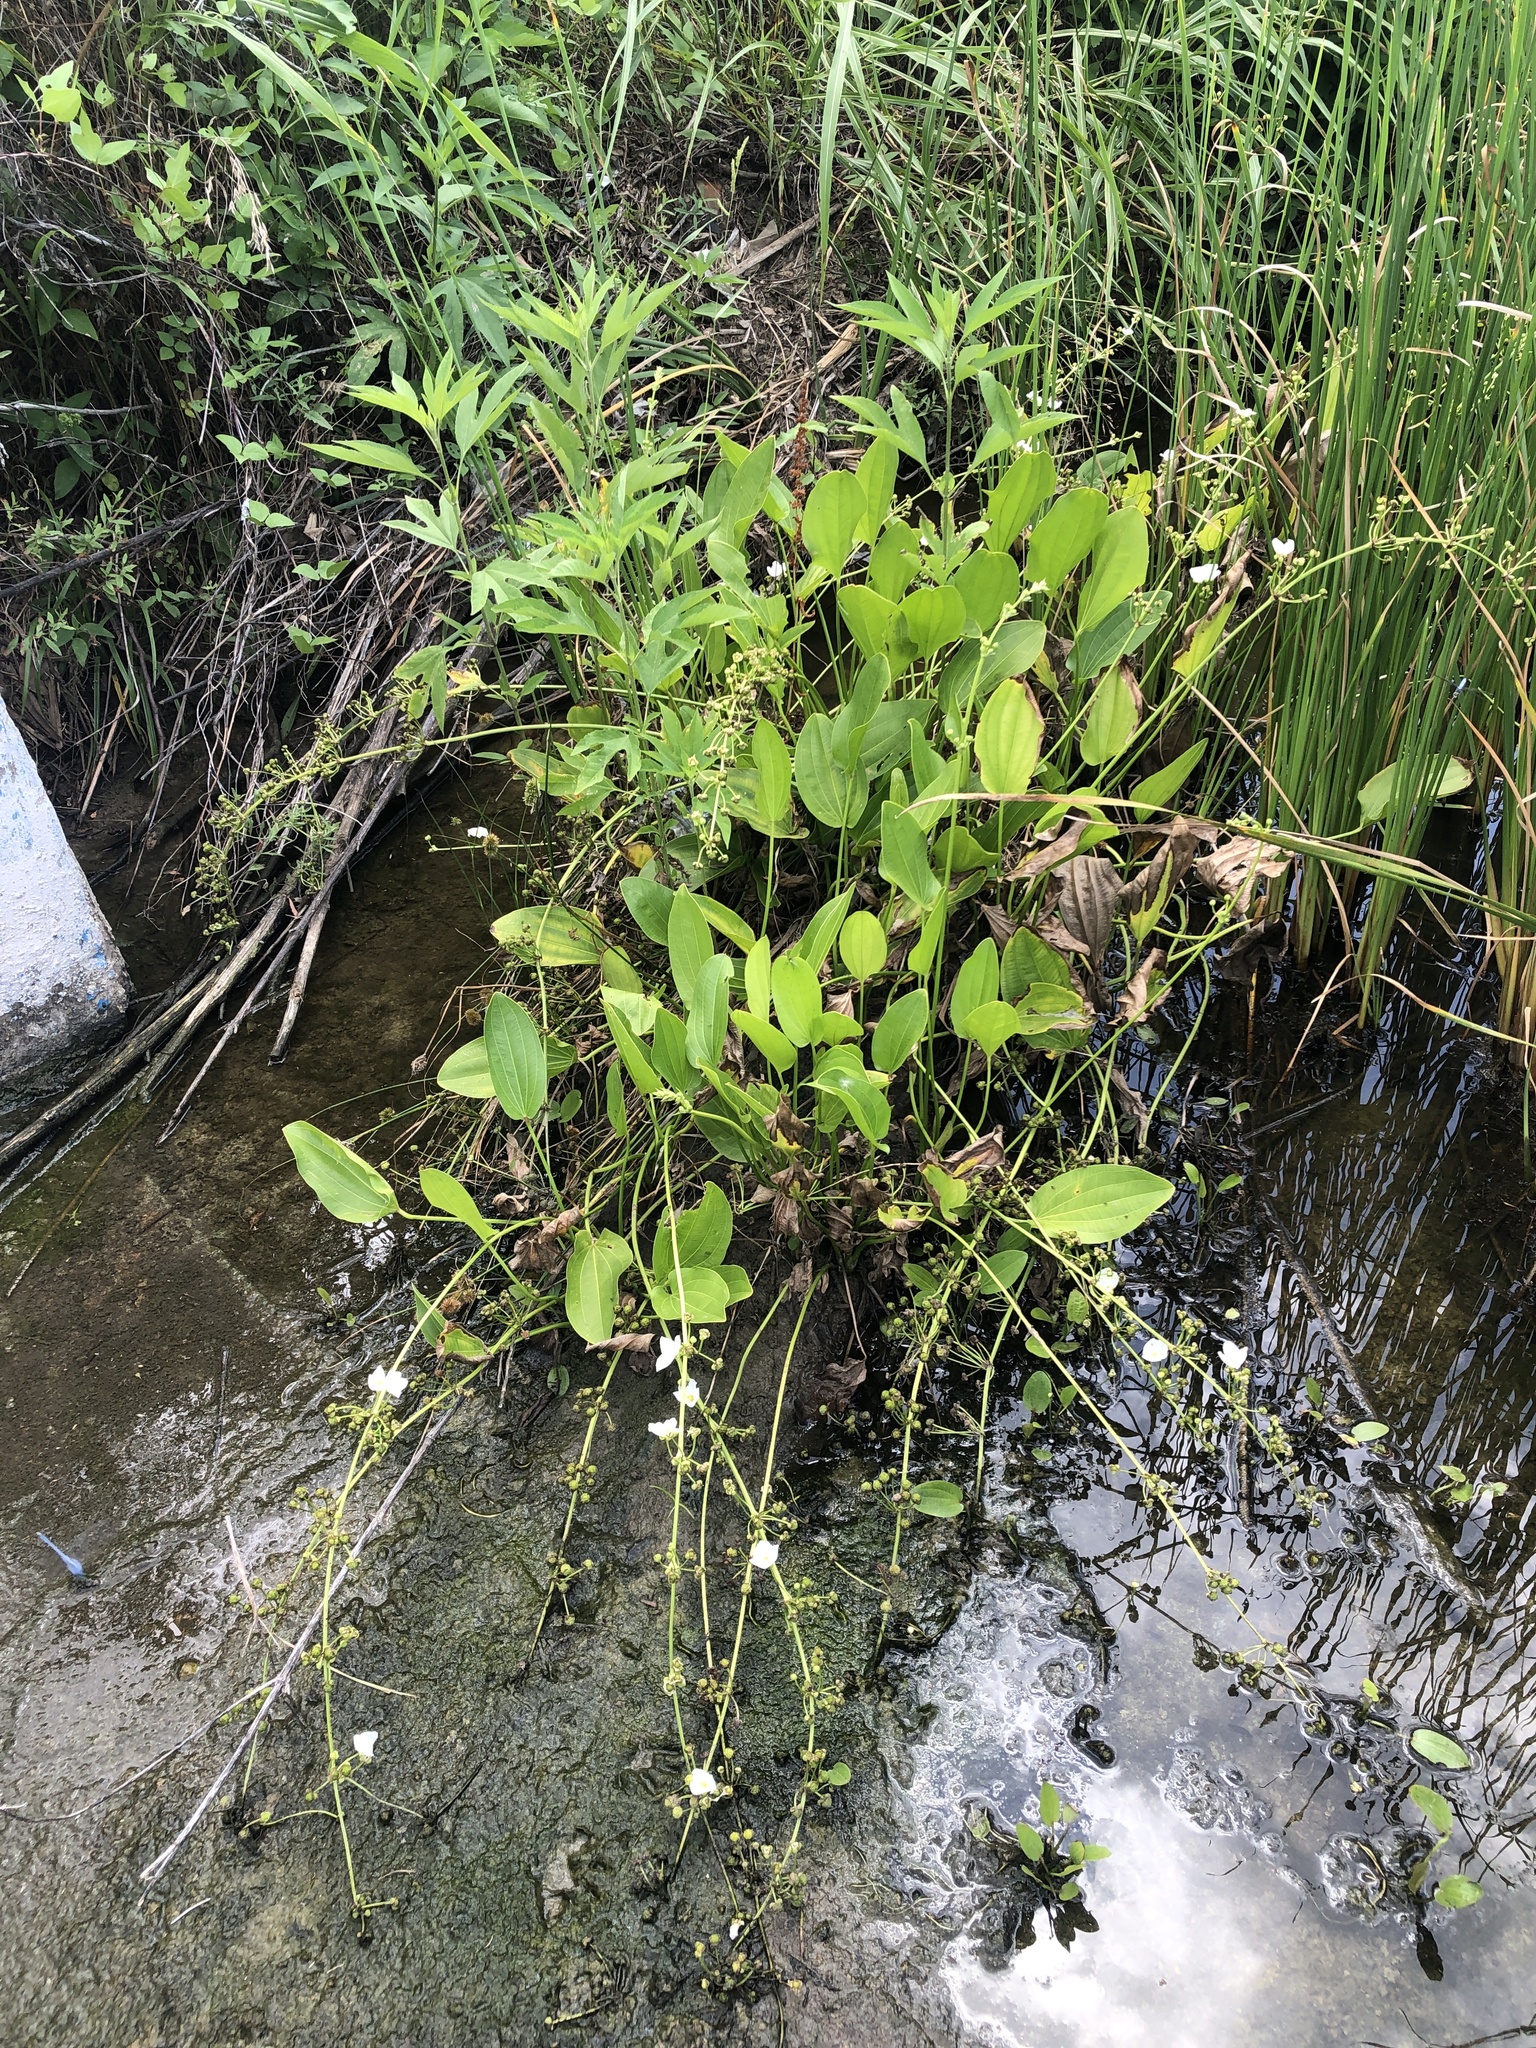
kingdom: Plantae
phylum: Tracheophyta
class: Liliopsida
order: Alismatales
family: Alismataceae
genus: Aquarius
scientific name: Aquarius cordifolius
